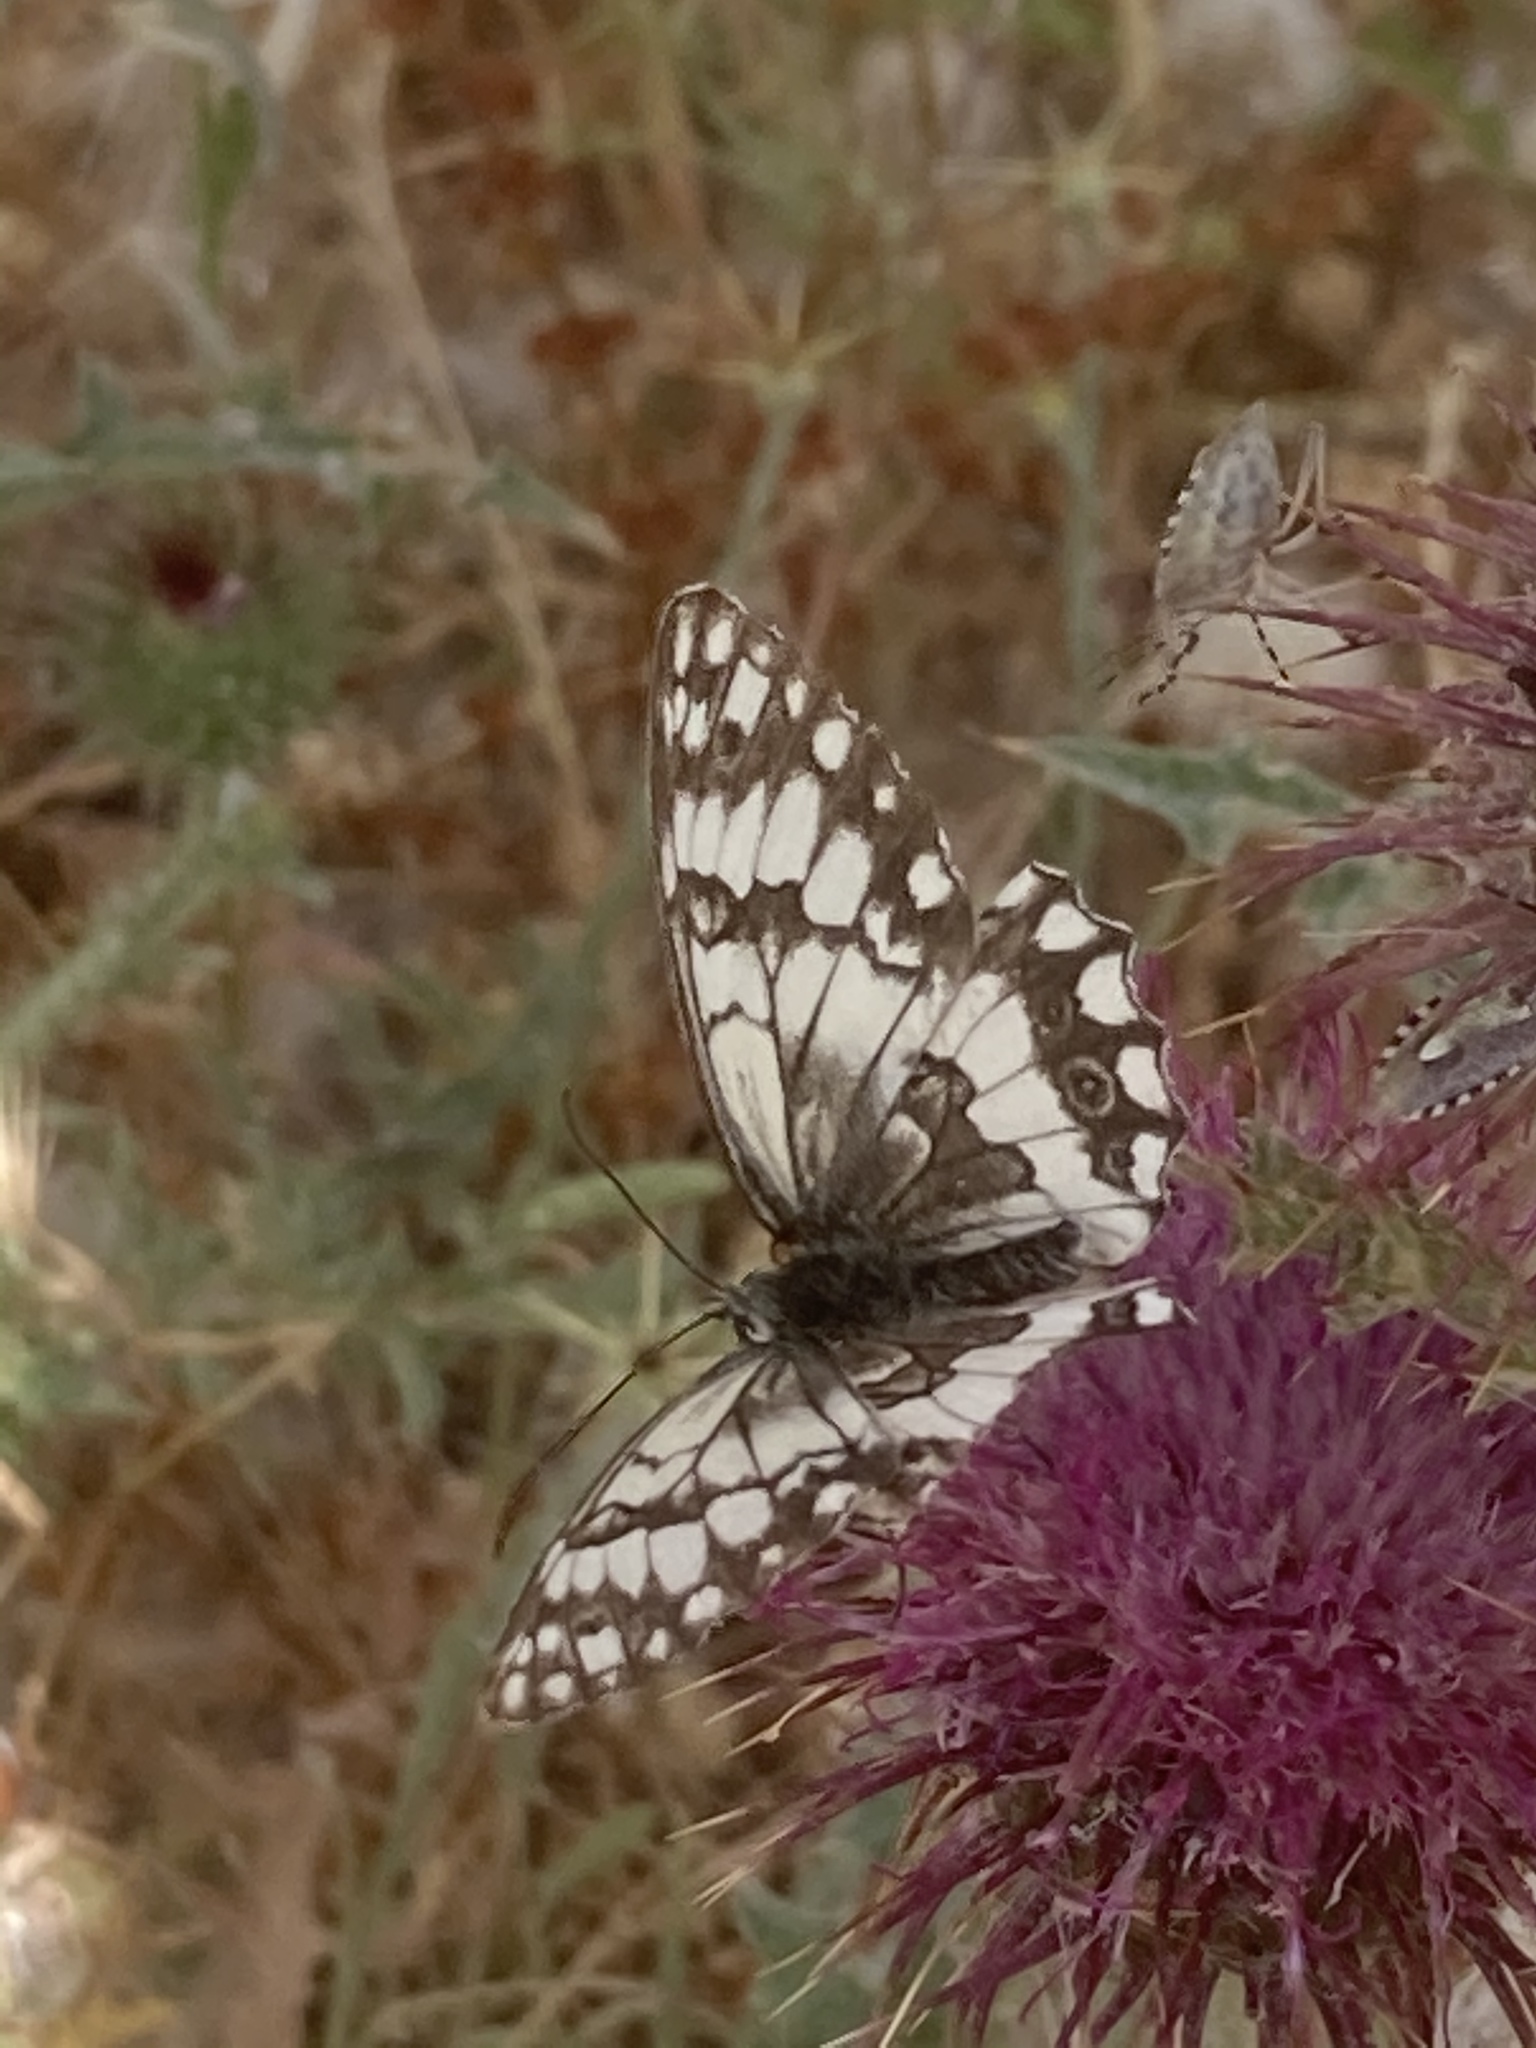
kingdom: Animalia
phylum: Arthropoda
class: Insecta
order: Lepidoptera
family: Nymphalidae
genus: Melanargia
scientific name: Melanargia larissa
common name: Balkan marbled white
